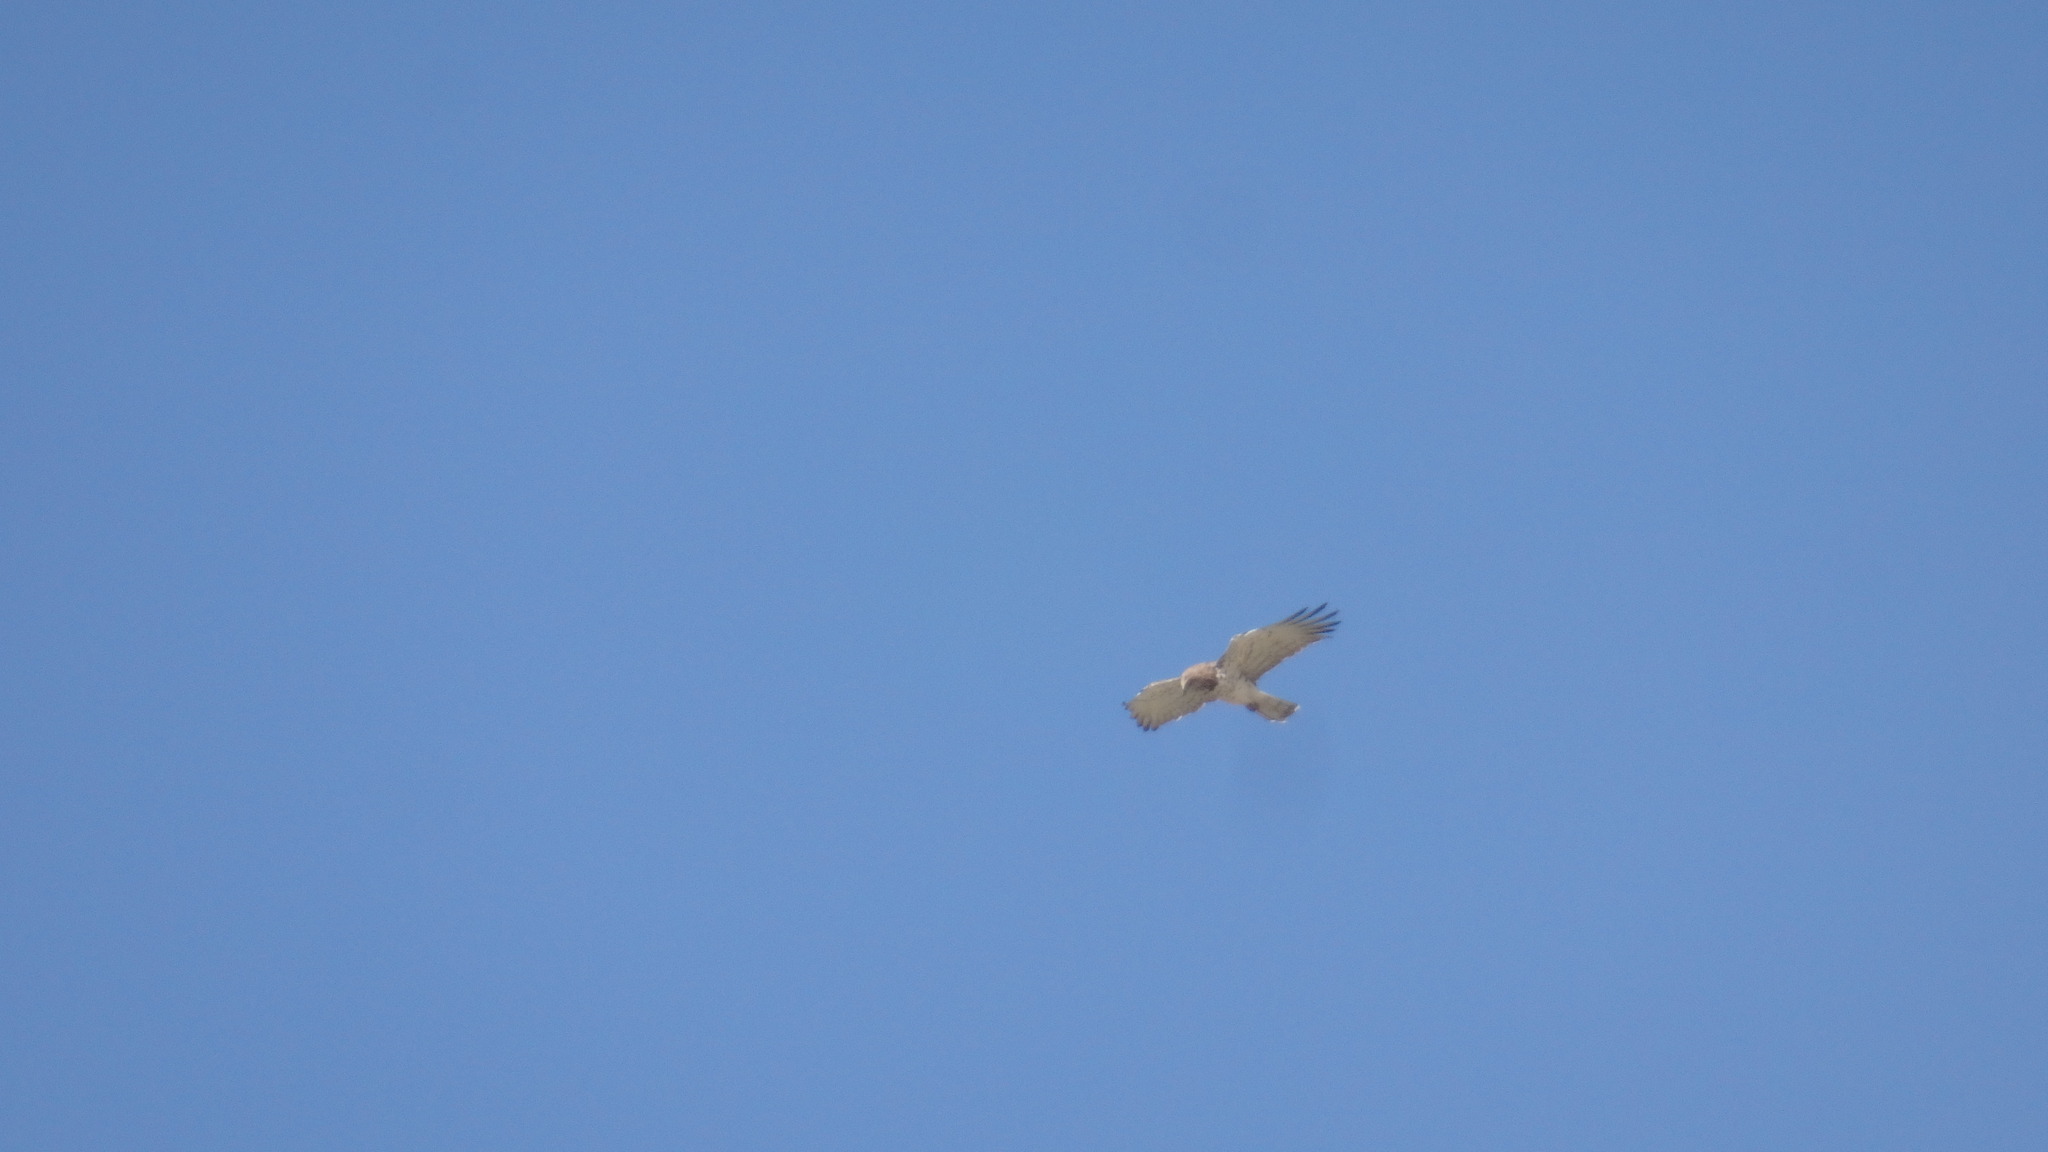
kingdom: Animalia
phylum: Chordata
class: Aves
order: Accipitriformes
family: Accipitridae
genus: Circaetus
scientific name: Circaetus gallicus
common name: Short-toed snake eagle
